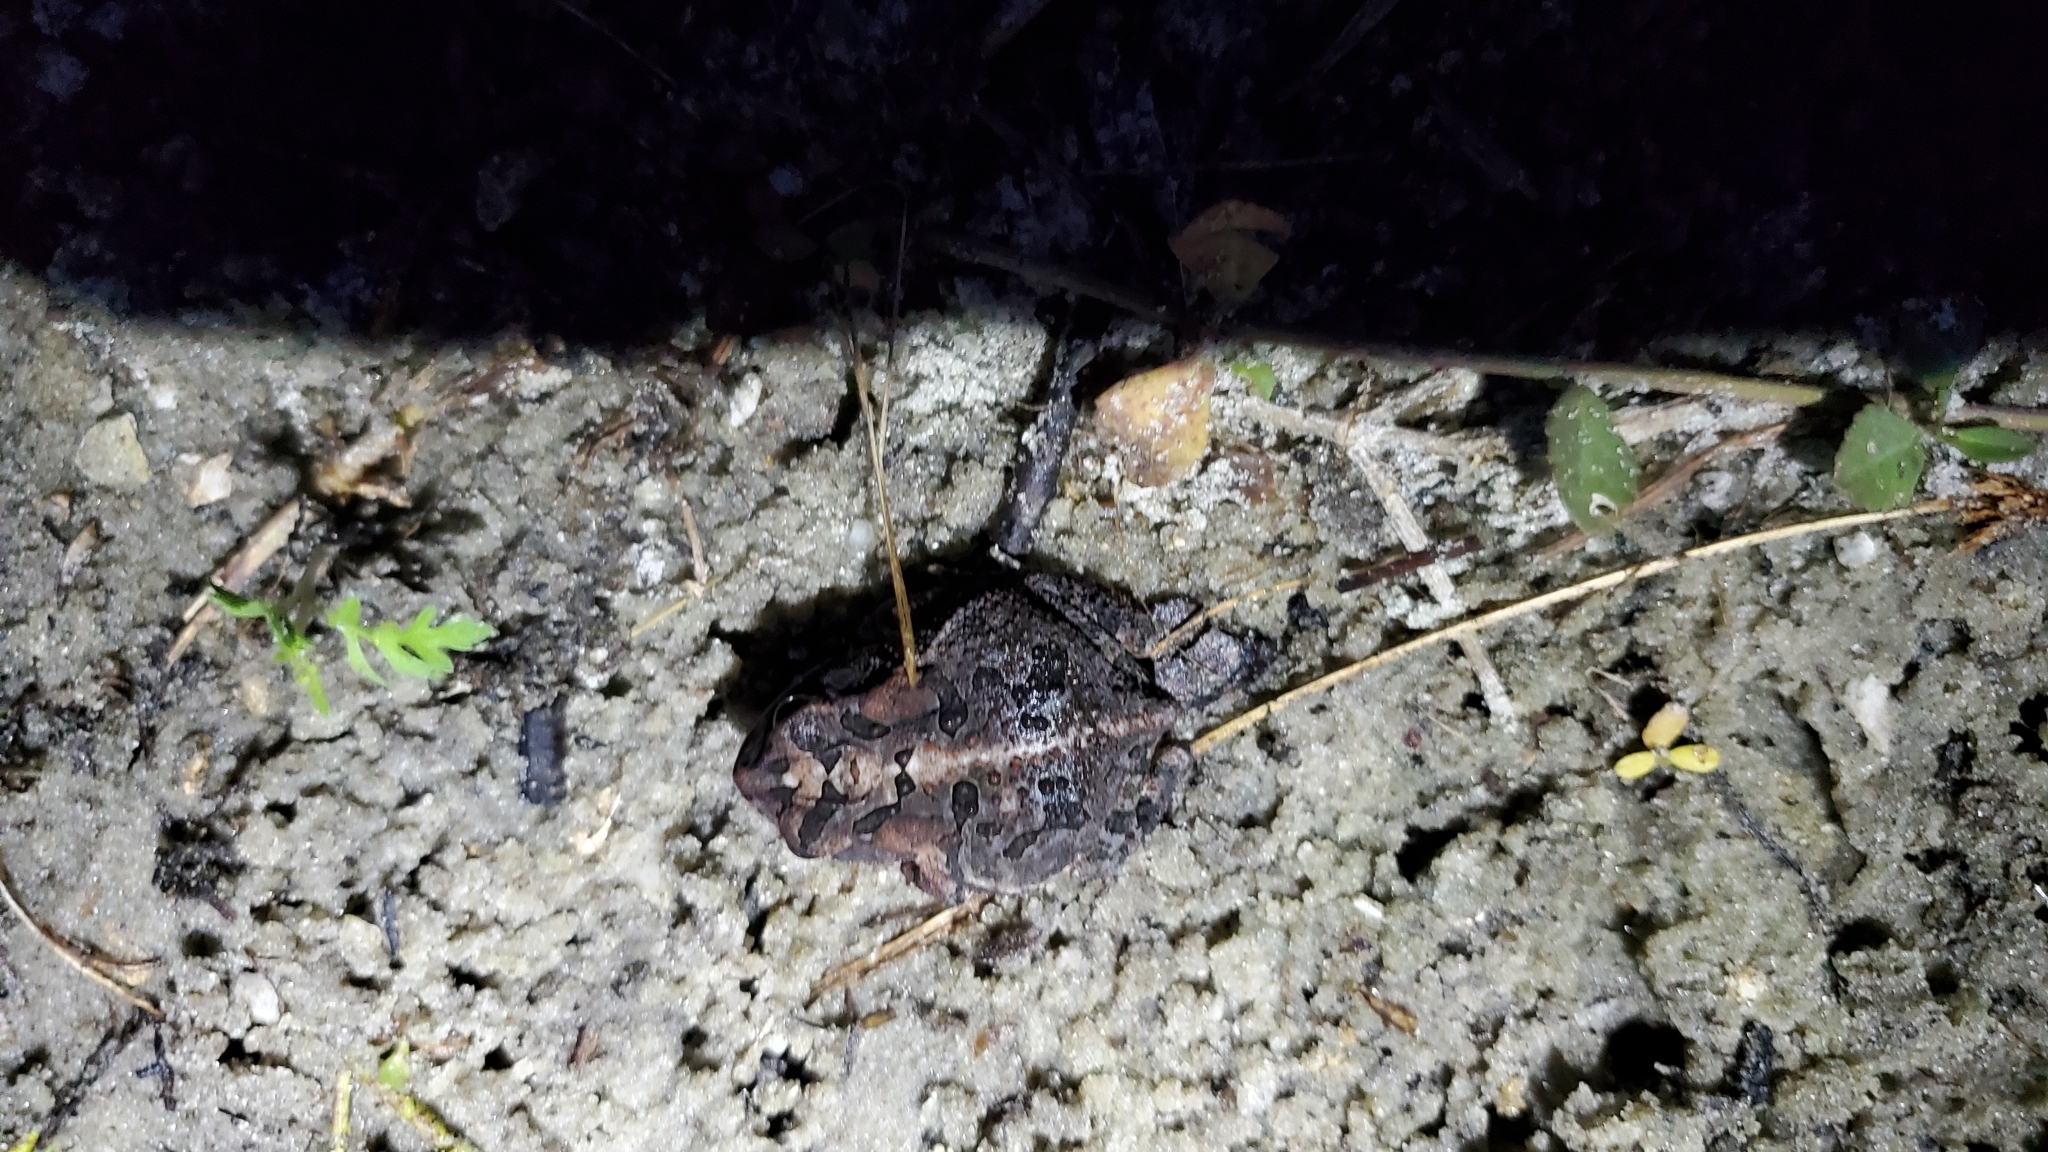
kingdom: Animalia
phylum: Chordata
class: Amphibia
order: Anura
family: Bufonidae
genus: Anaxyrus
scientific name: Anaxyrus terrestris
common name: Southern toad
